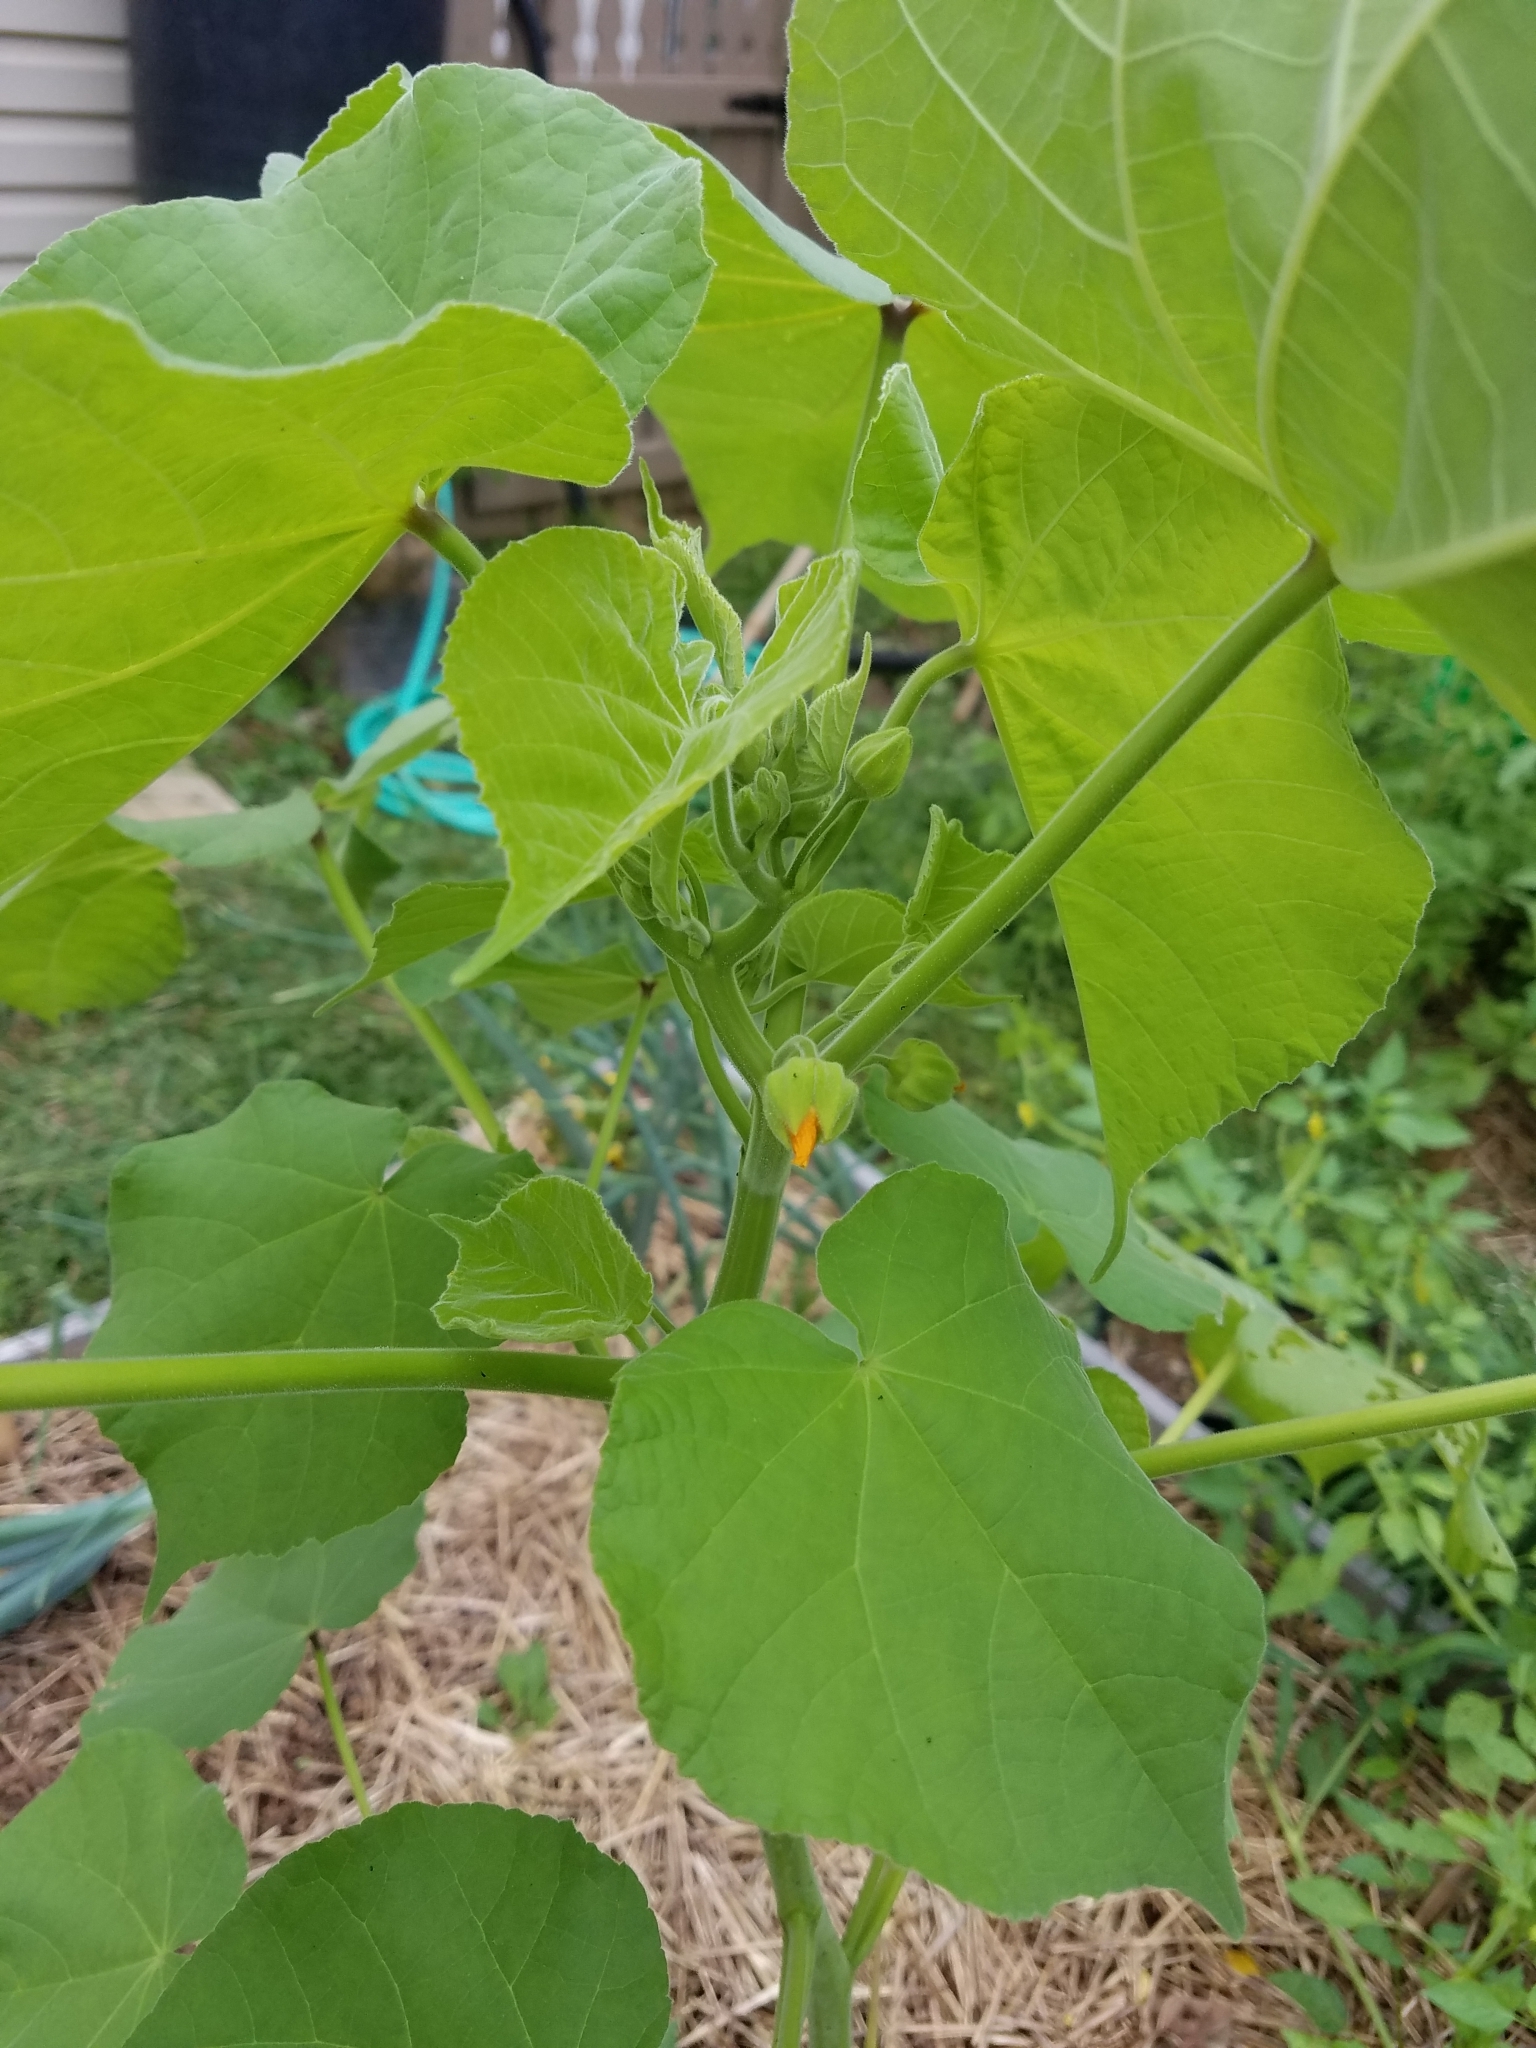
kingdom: Plantae
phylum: Tracheophyta
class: Magnoliopsida
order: Malvales
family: Malvaceae
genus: Abutilon
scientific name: Abutilon theophrasti
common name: Velvetleaf
